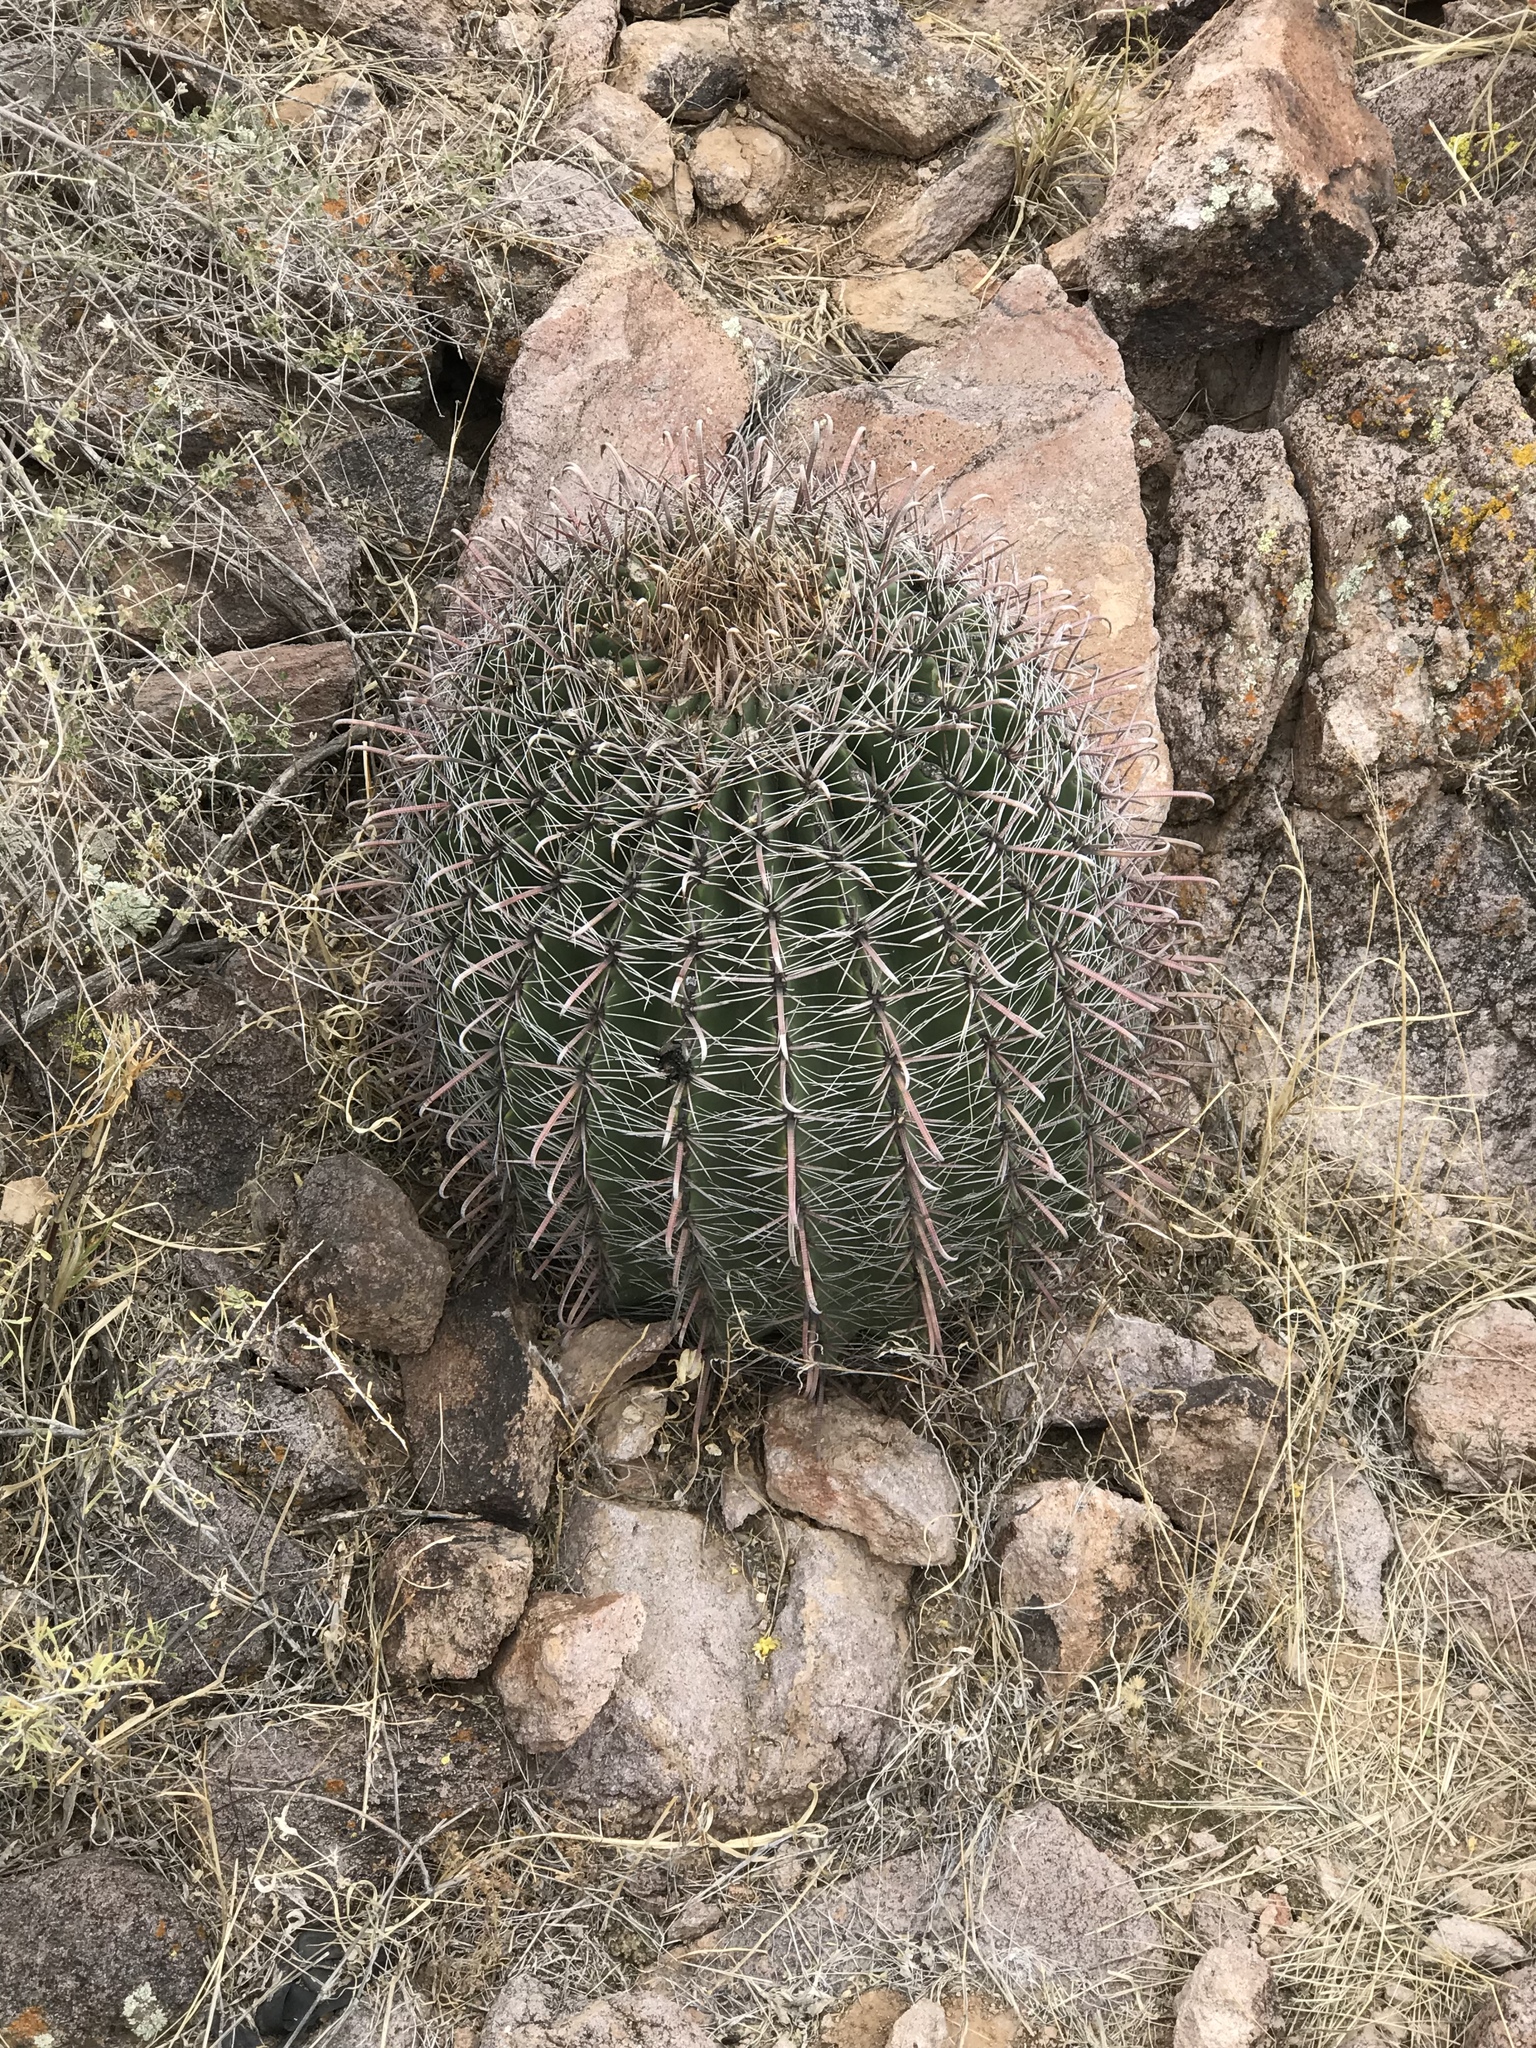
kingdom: Plantae
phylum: Tracheophyta
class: Magnoliopsida
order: Caryophyllales
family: Cactaceae
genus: Ferocactus
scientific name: Ferocactus wislizeni
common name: Candy barrel cactus
